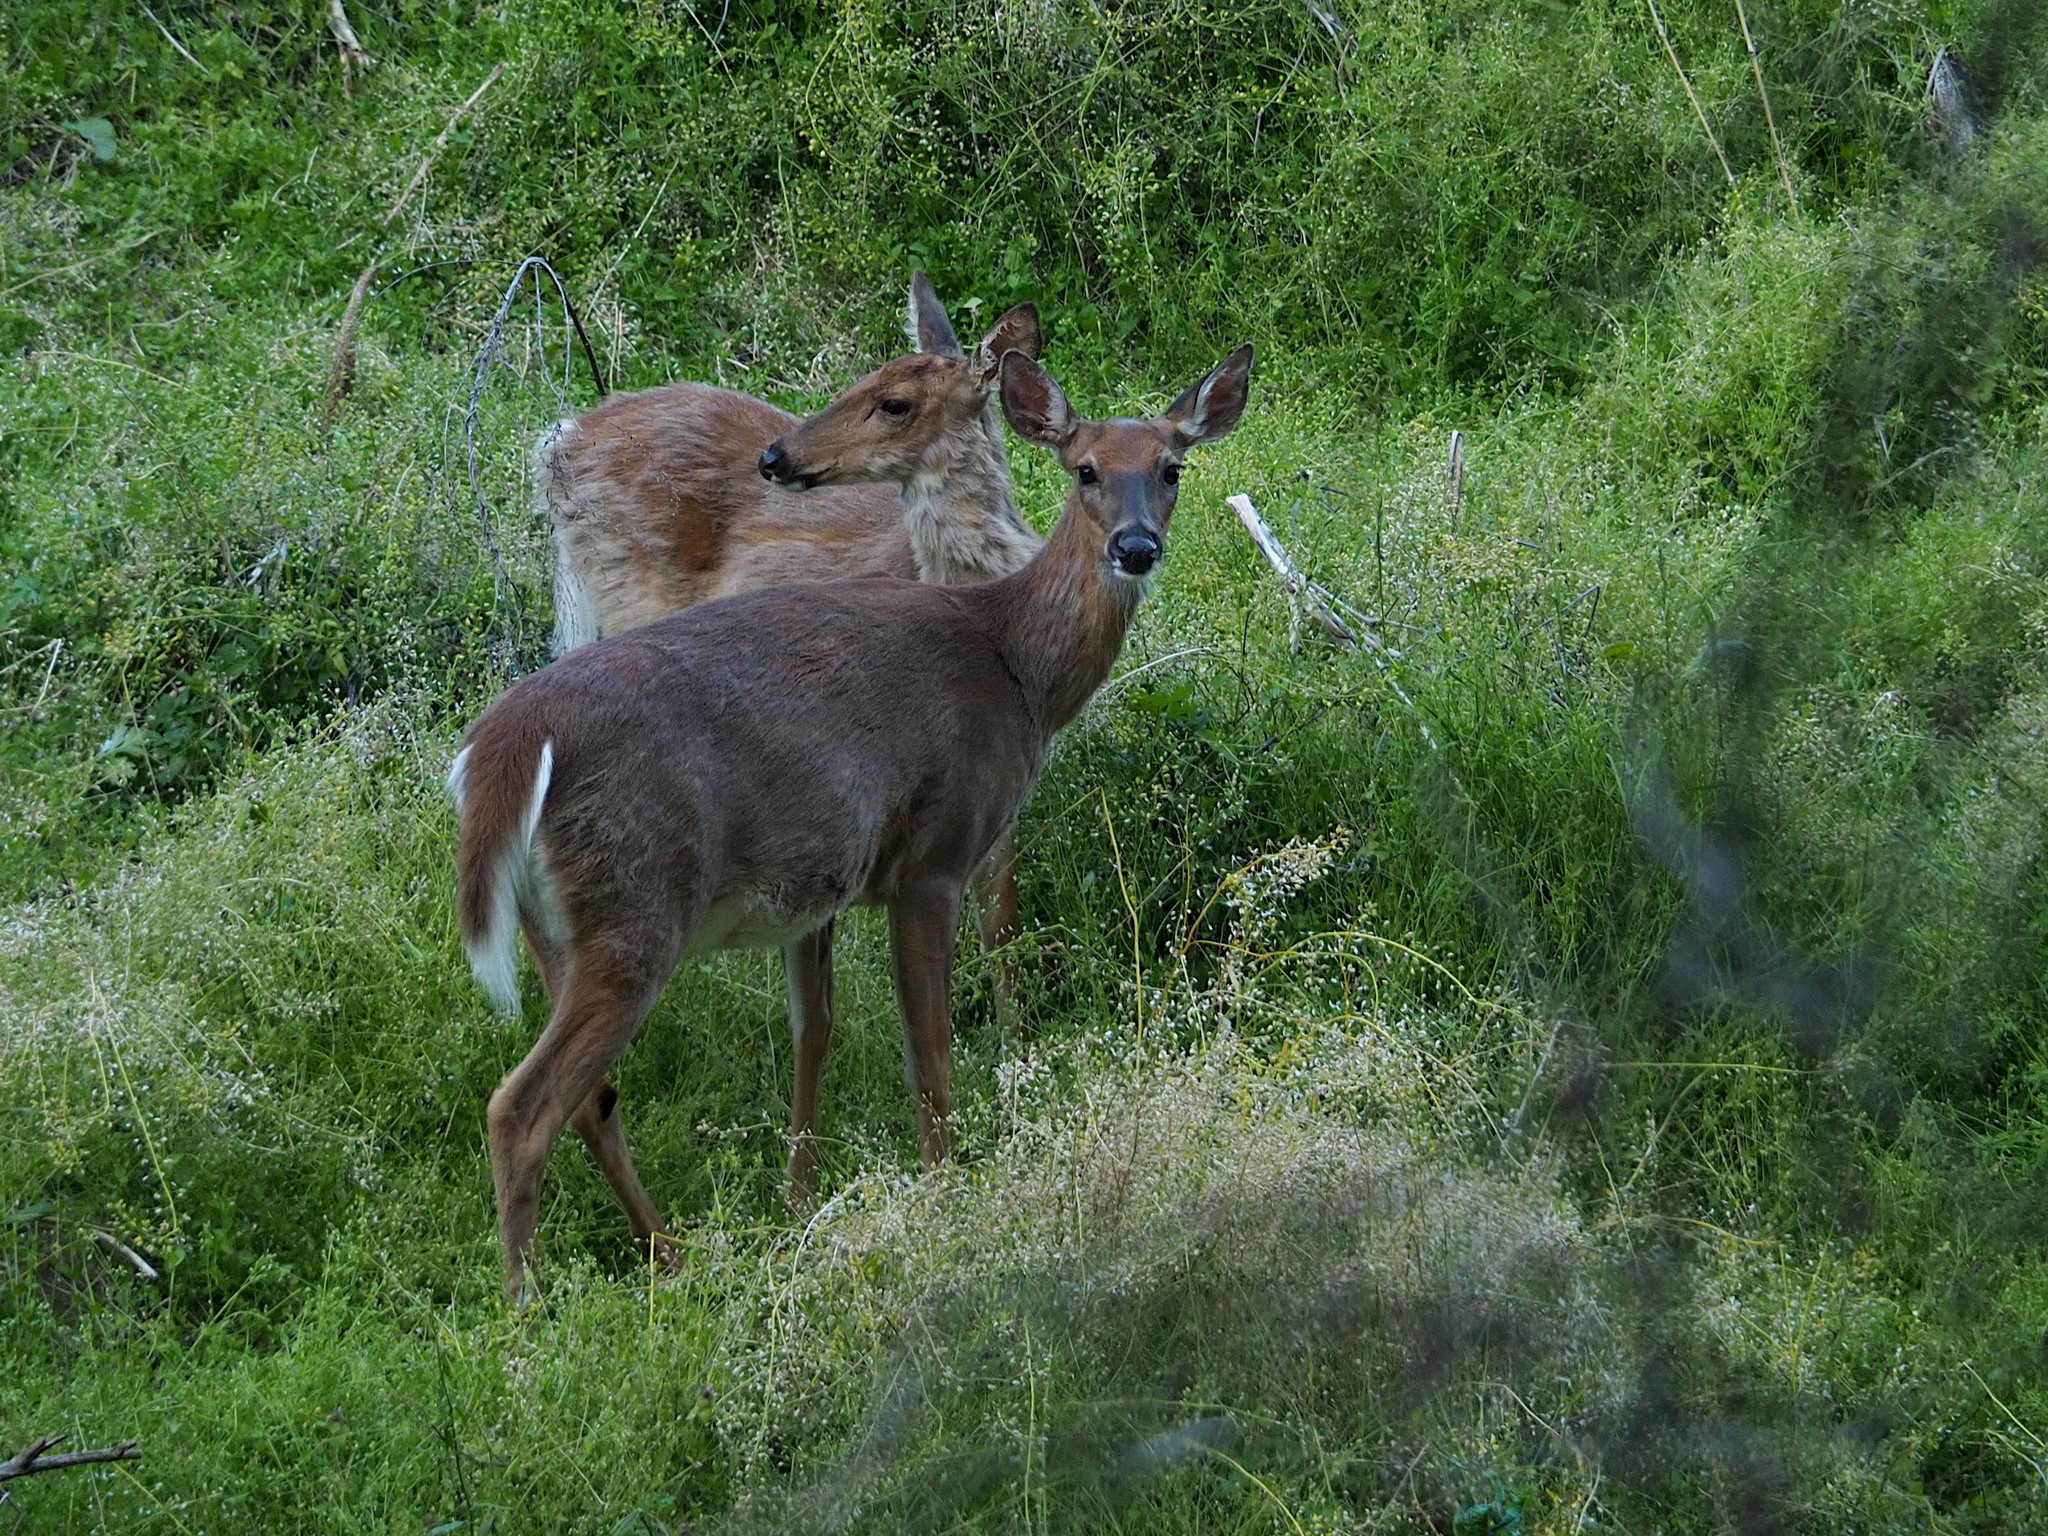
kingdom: Animalia
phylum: Chordata
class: Mammalia
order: Artiodactyla
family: Cervidae
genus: Odocoileus
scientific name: Odocoileus virginianus
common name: White-tailed deer
